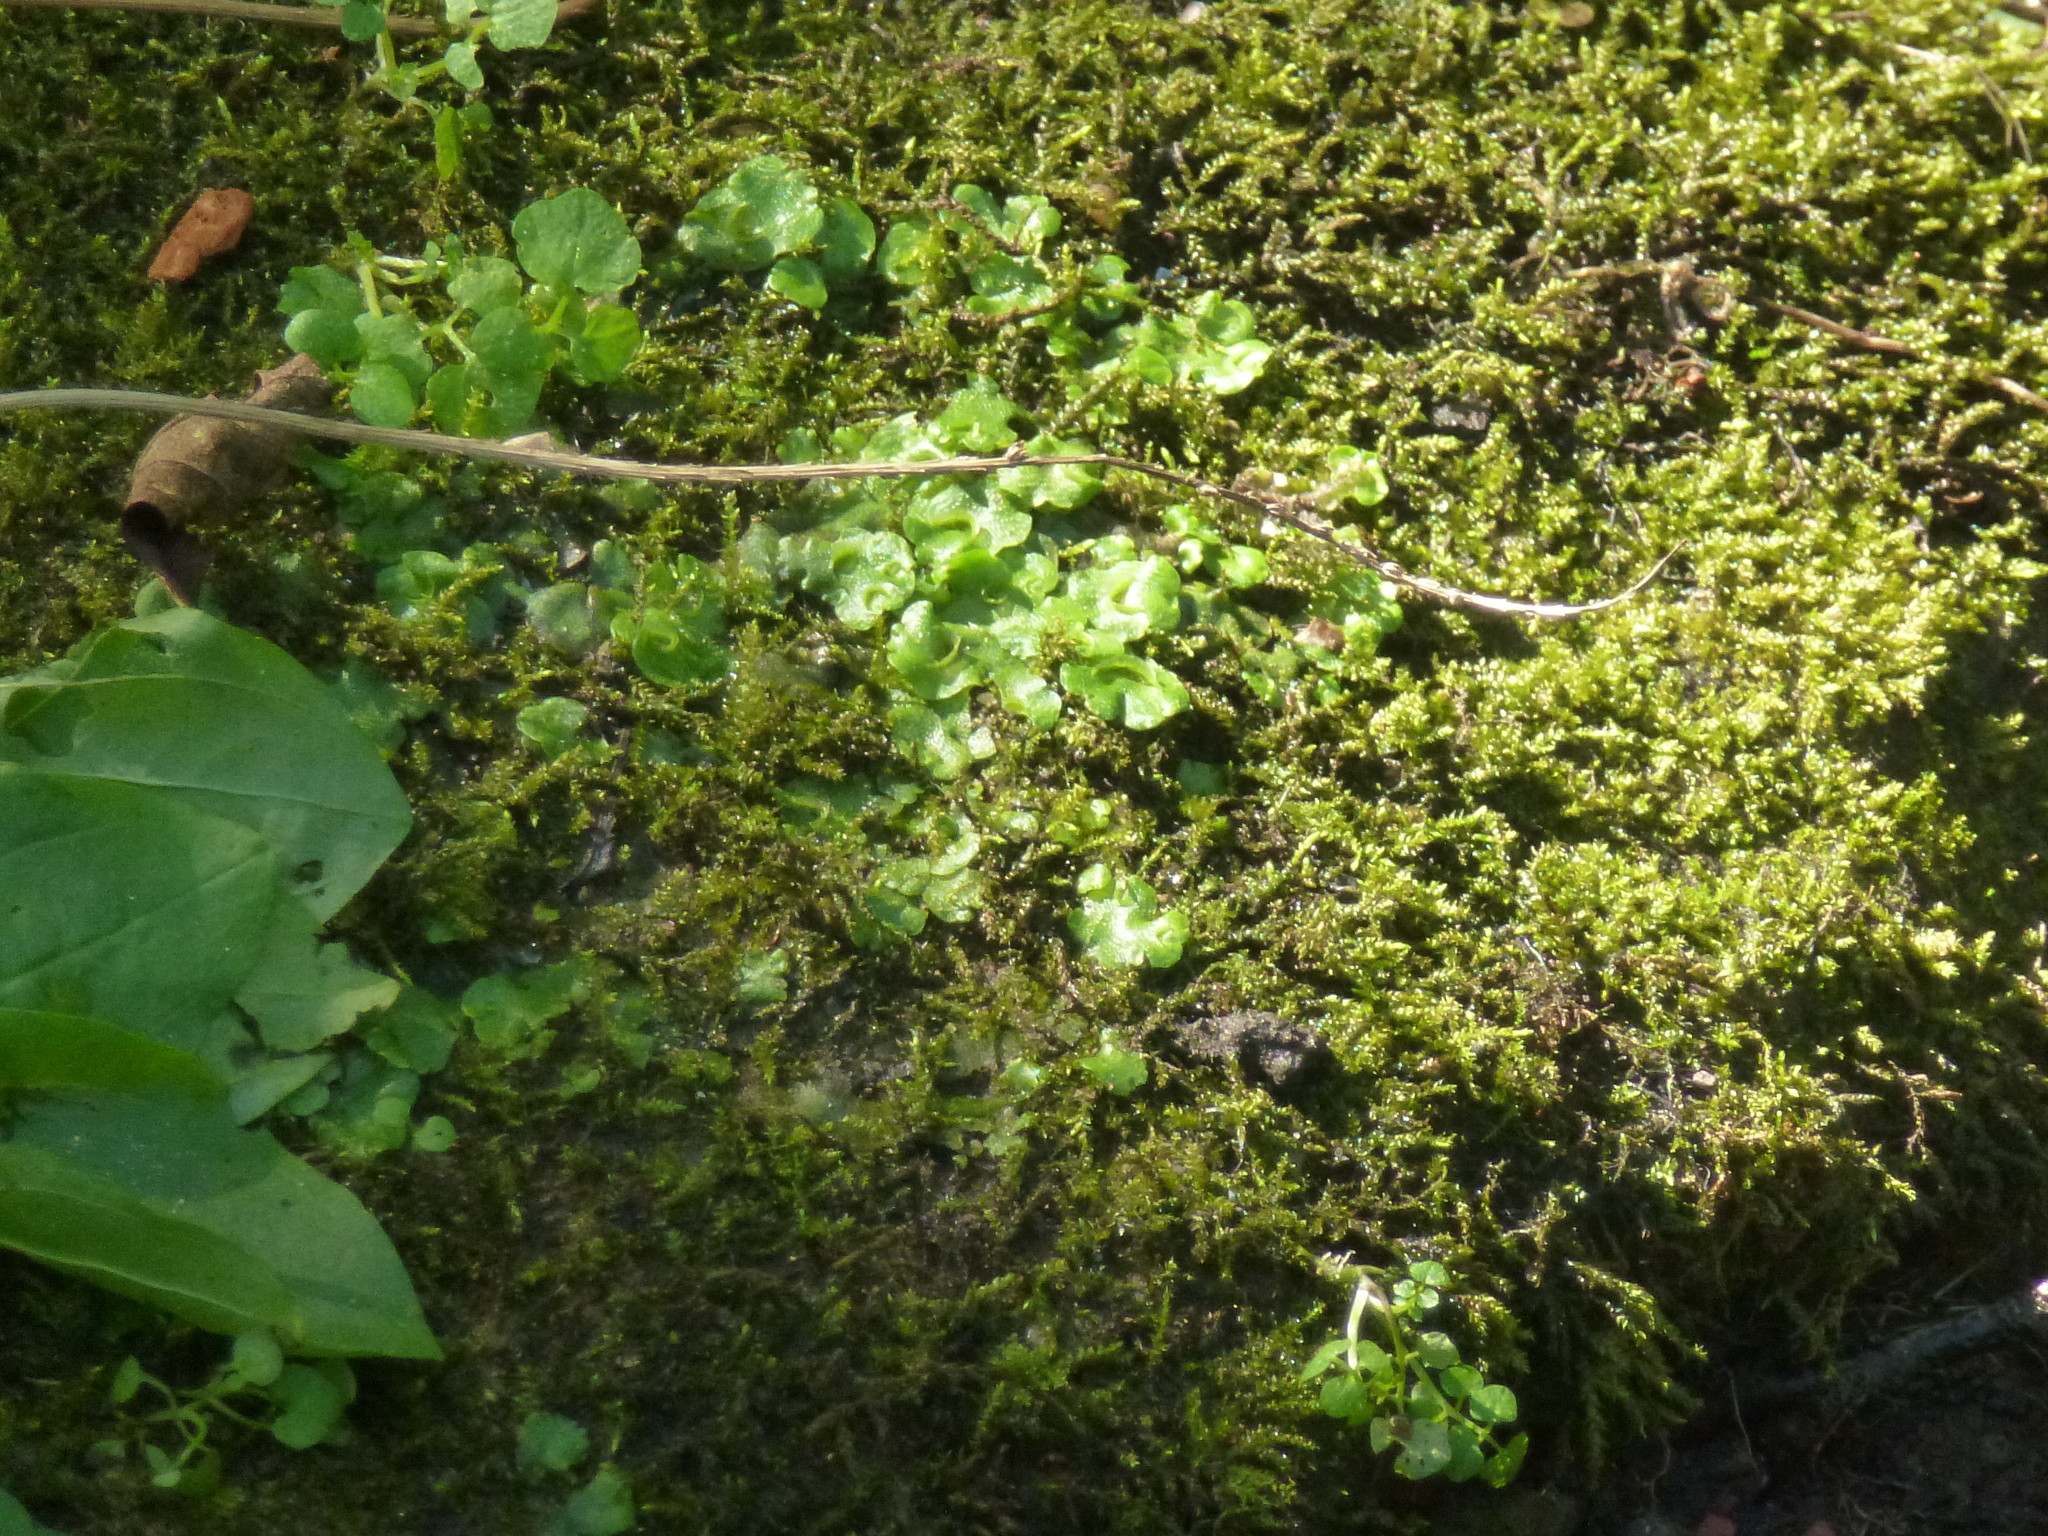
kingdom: Plantae
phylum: Marchantiophyta
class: Marchantiopsida
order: Lunulariales
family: Lunulariaceae
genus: Lunularia
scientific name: Lunularia cruciata
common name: Crescent-cup liverwort
